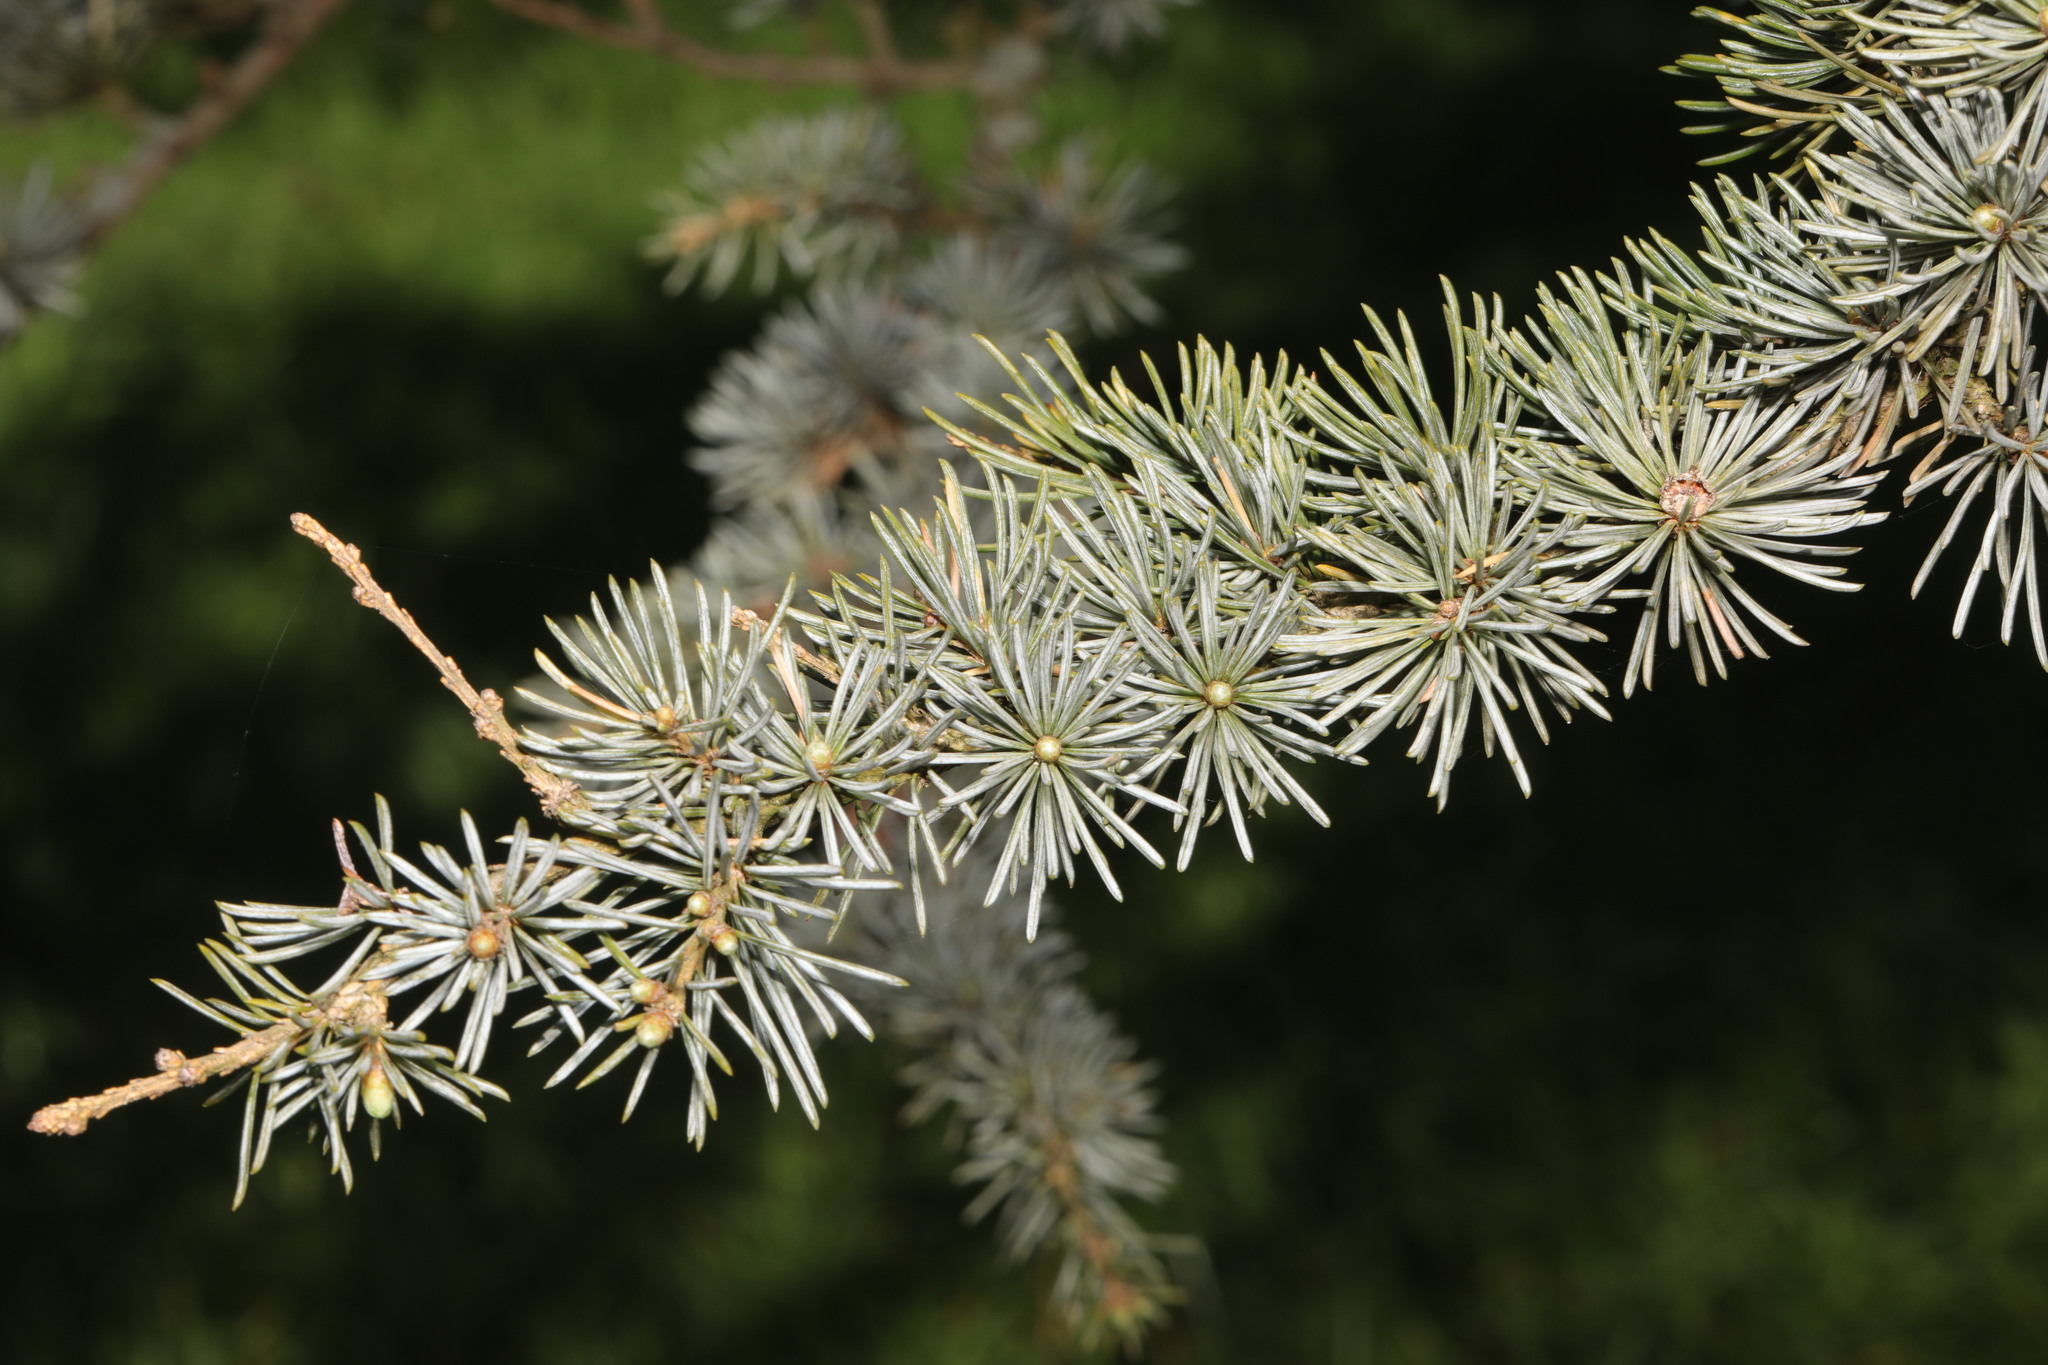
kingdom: Plantae
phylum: Tracheophyta
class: Pinopsida
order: Pinales
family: Pinaceae
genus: Cedrus
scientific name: Cedrus atlantica
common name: Atlas cedar
